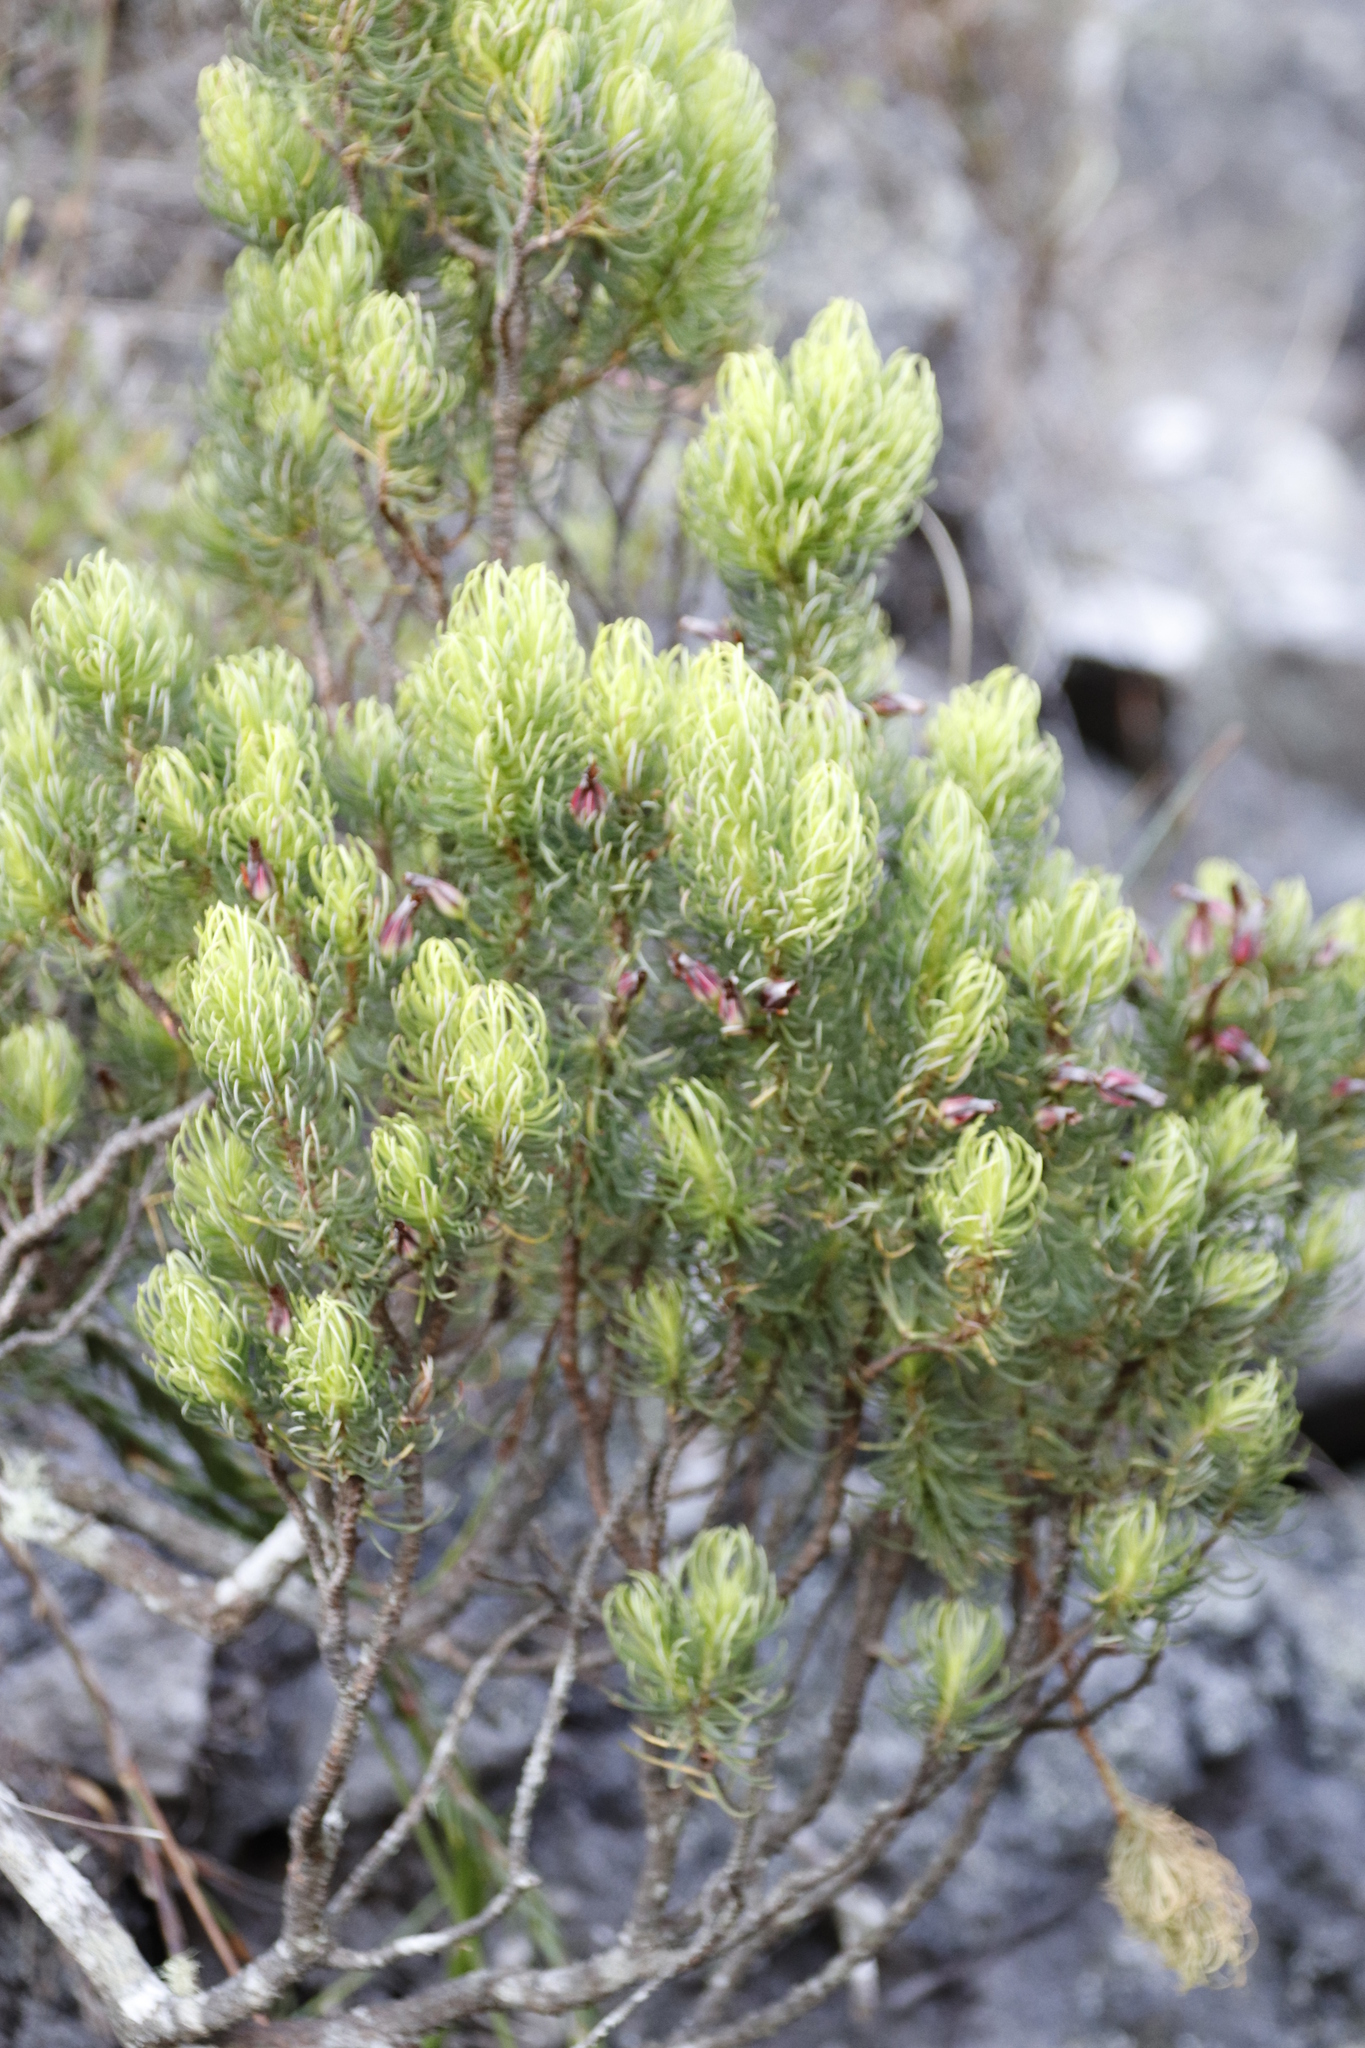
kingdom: Plantae
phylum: Tracheophyta
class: Magnoliopsida
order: Ericales
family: Ericaceae
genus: Erica
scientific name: Erica plukenetii
